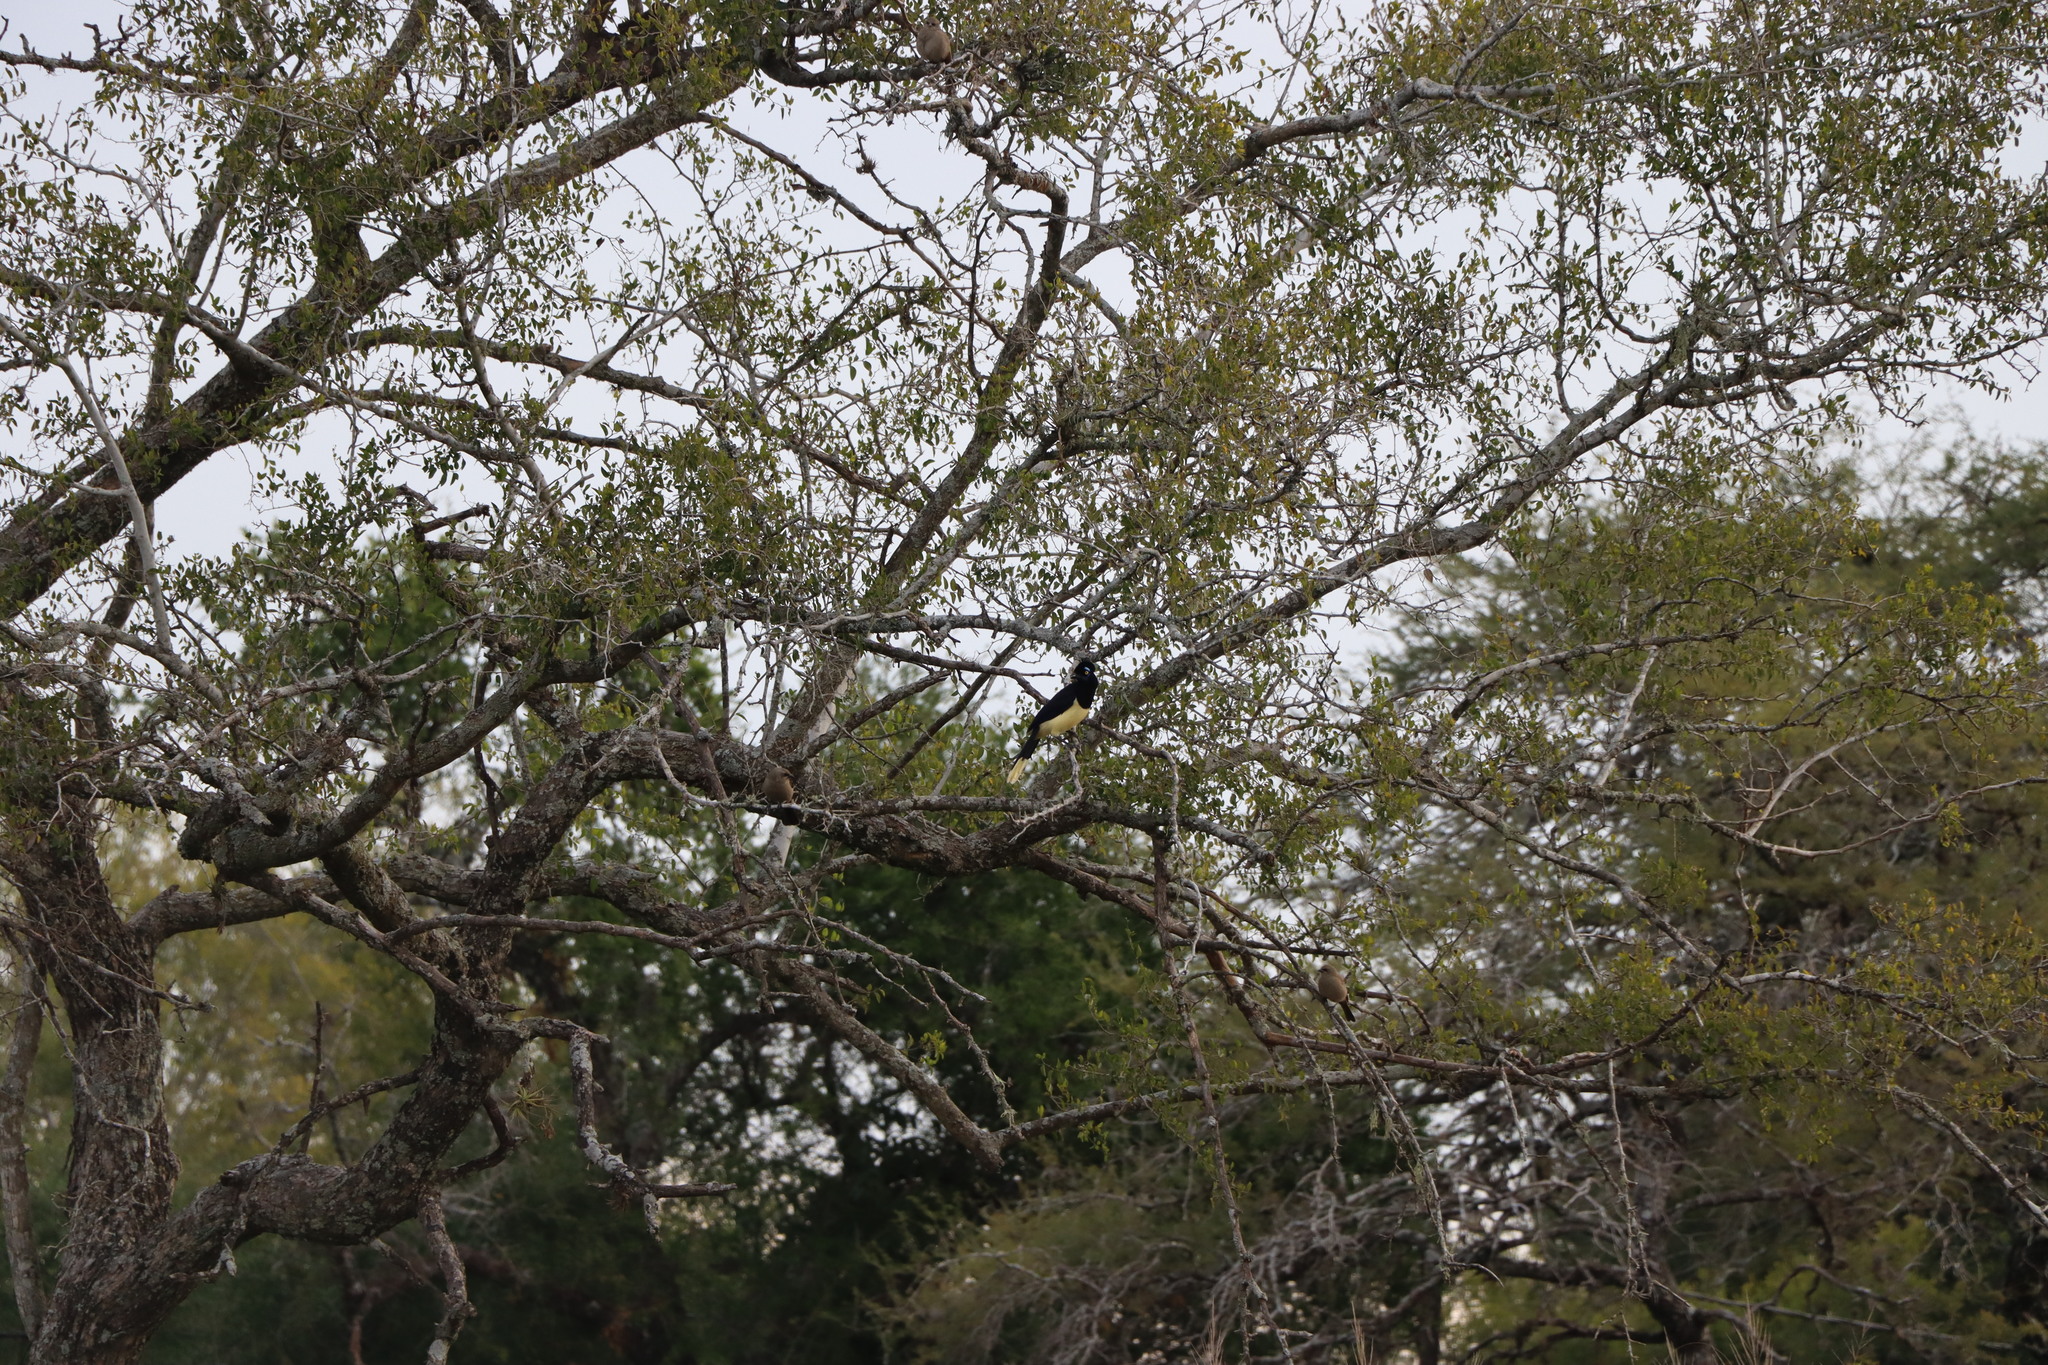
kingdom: Animalia
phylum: Chordata
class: Aves
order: Passeriformes
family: Corvidae
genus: Cyanocorax
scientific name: Cyanocorax chrysops
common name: Plush-crested jay
